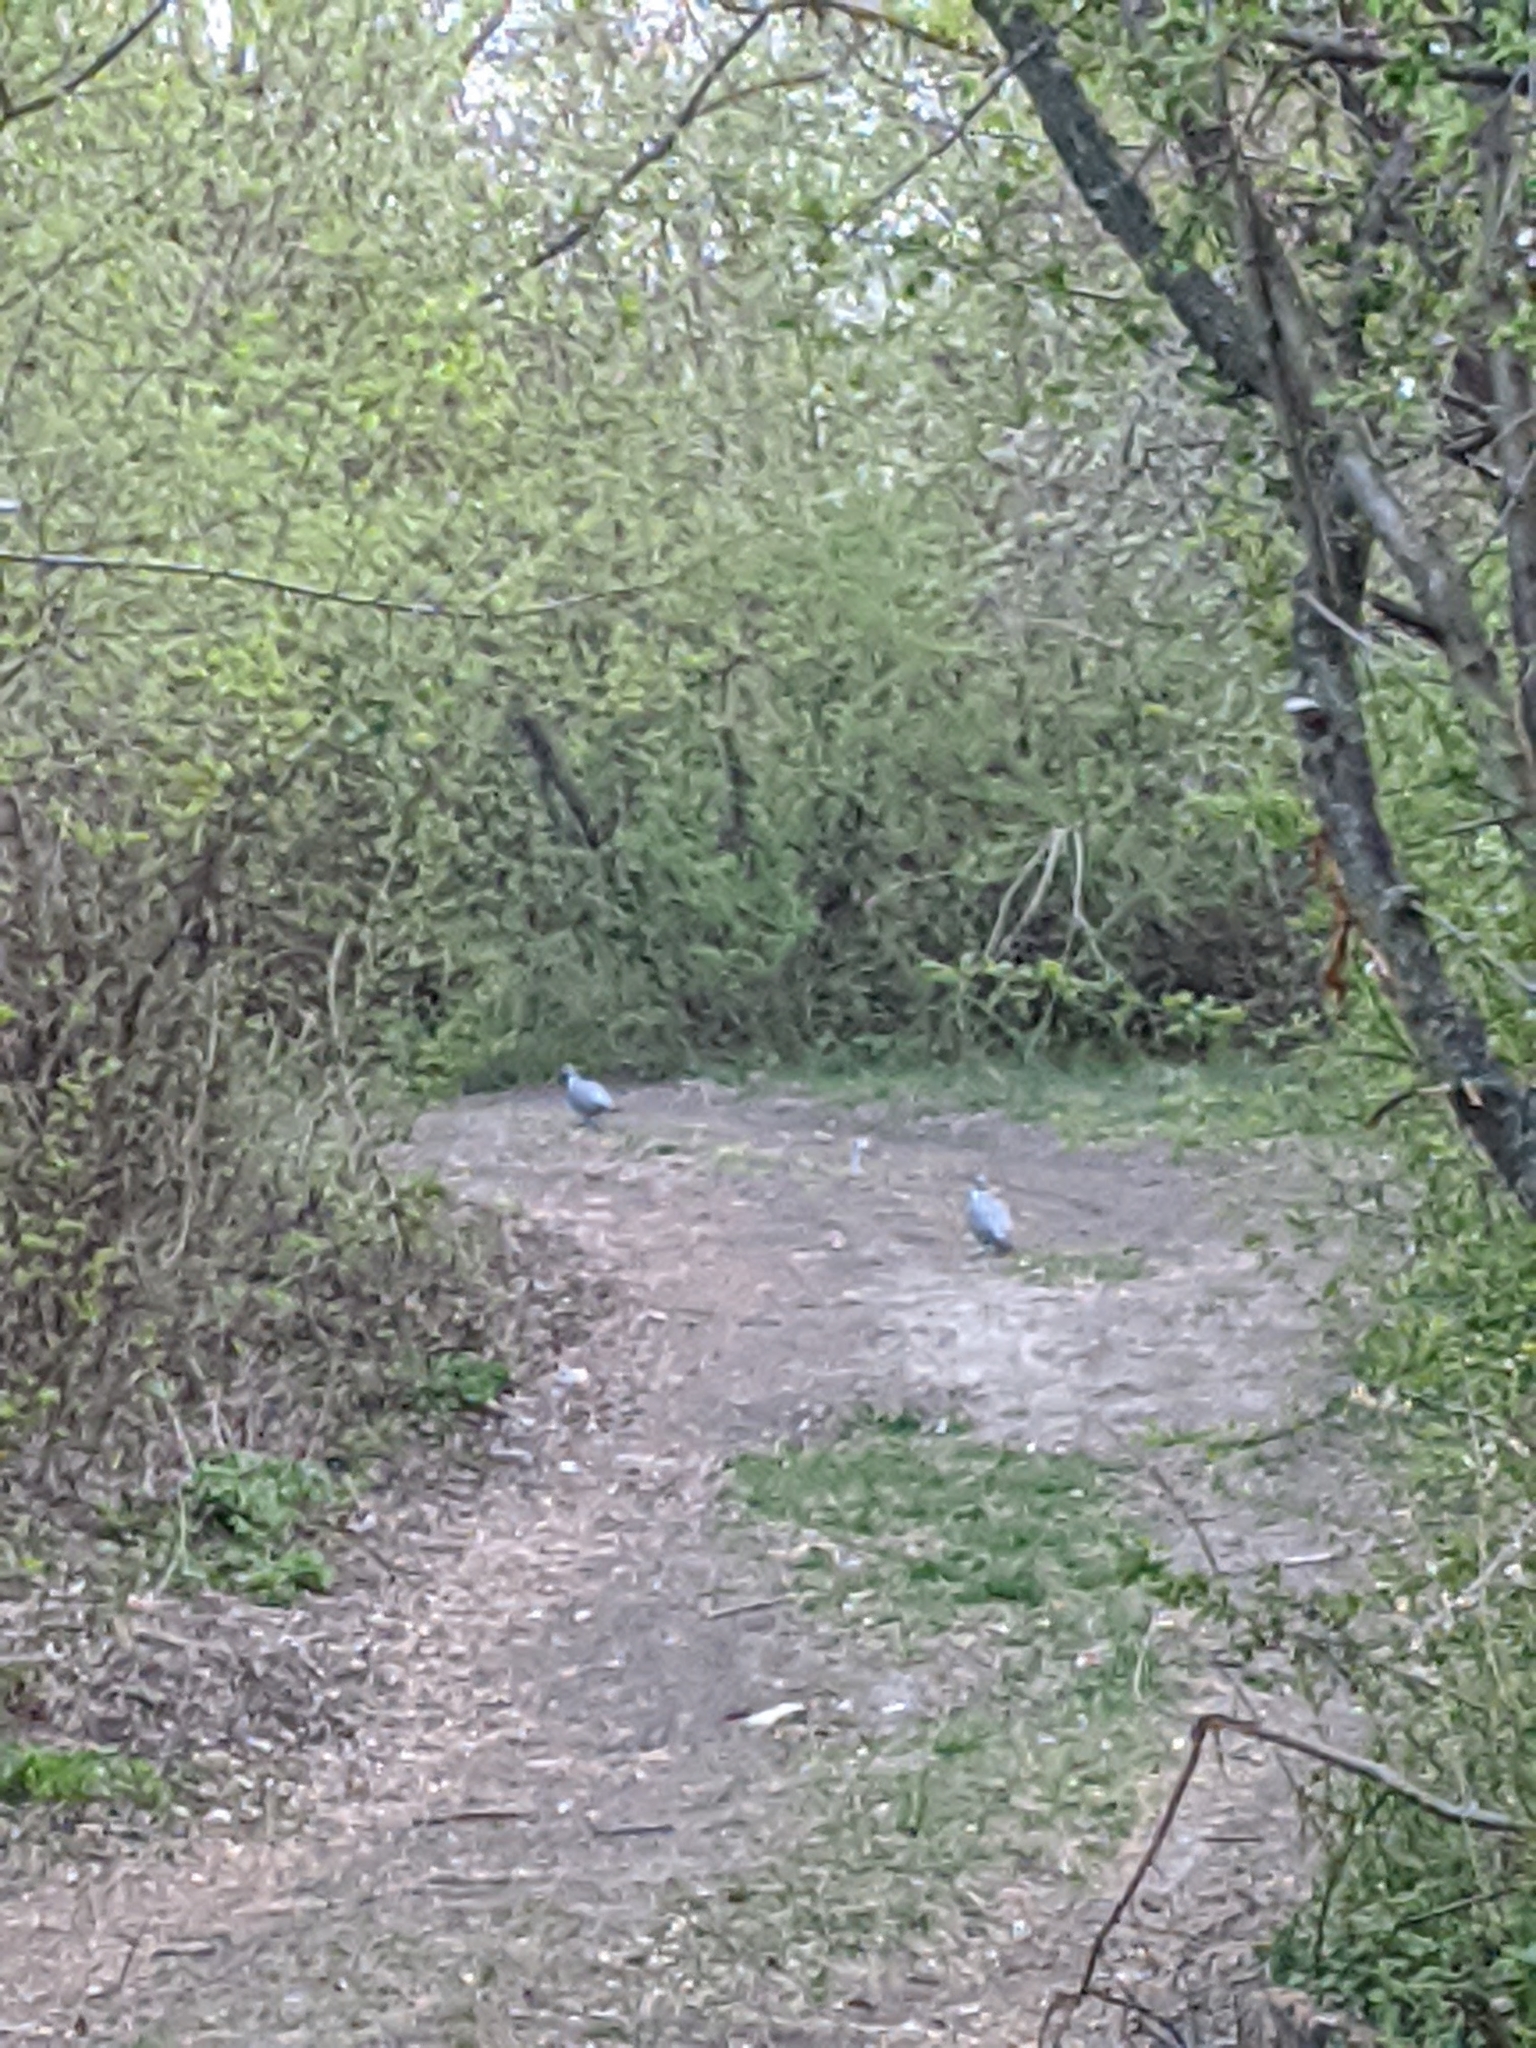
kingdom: Animalia
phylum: Chordata
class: Aves
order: Columbiformes
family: Columbidae
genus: Columba
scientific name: Columba palumbus
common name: Common wood pigeon
